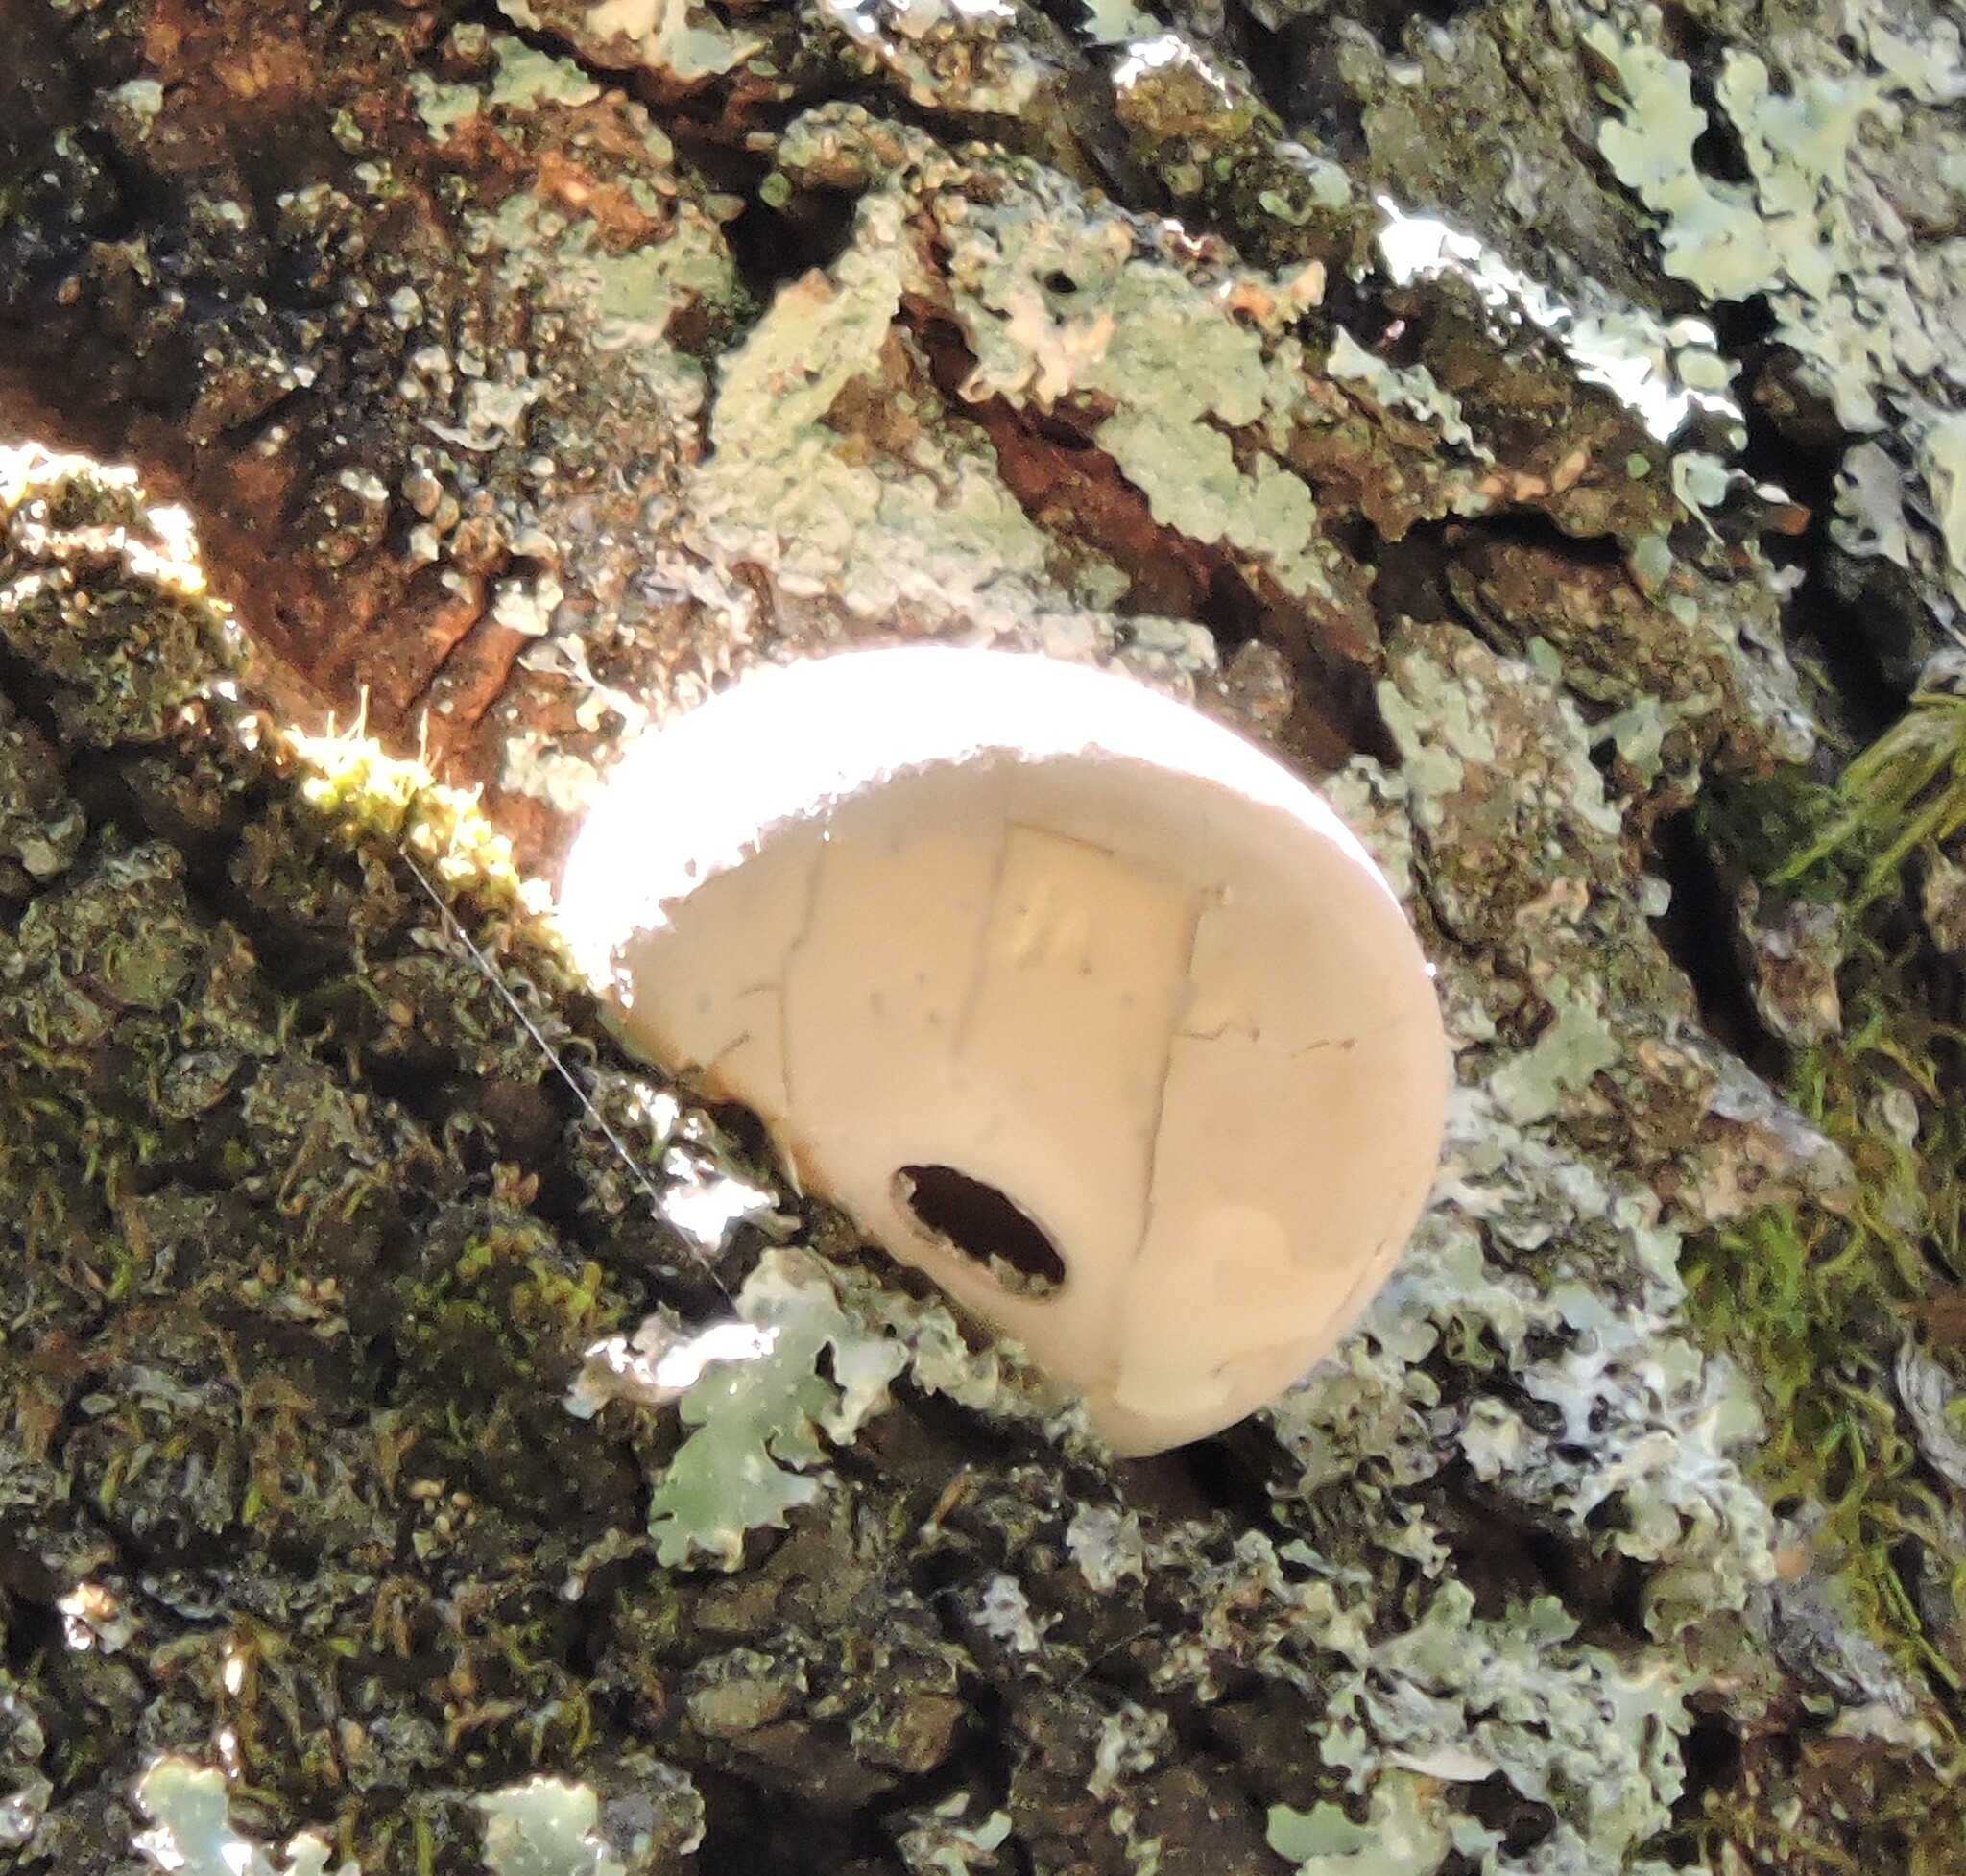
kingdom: Fungi
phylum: Basidiomycota
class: Agaricomycetes
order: Polyporales
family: Polyporaceae
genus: Cryptoporus
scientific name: Cryptoporus volvatus
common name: Veiled polypore
